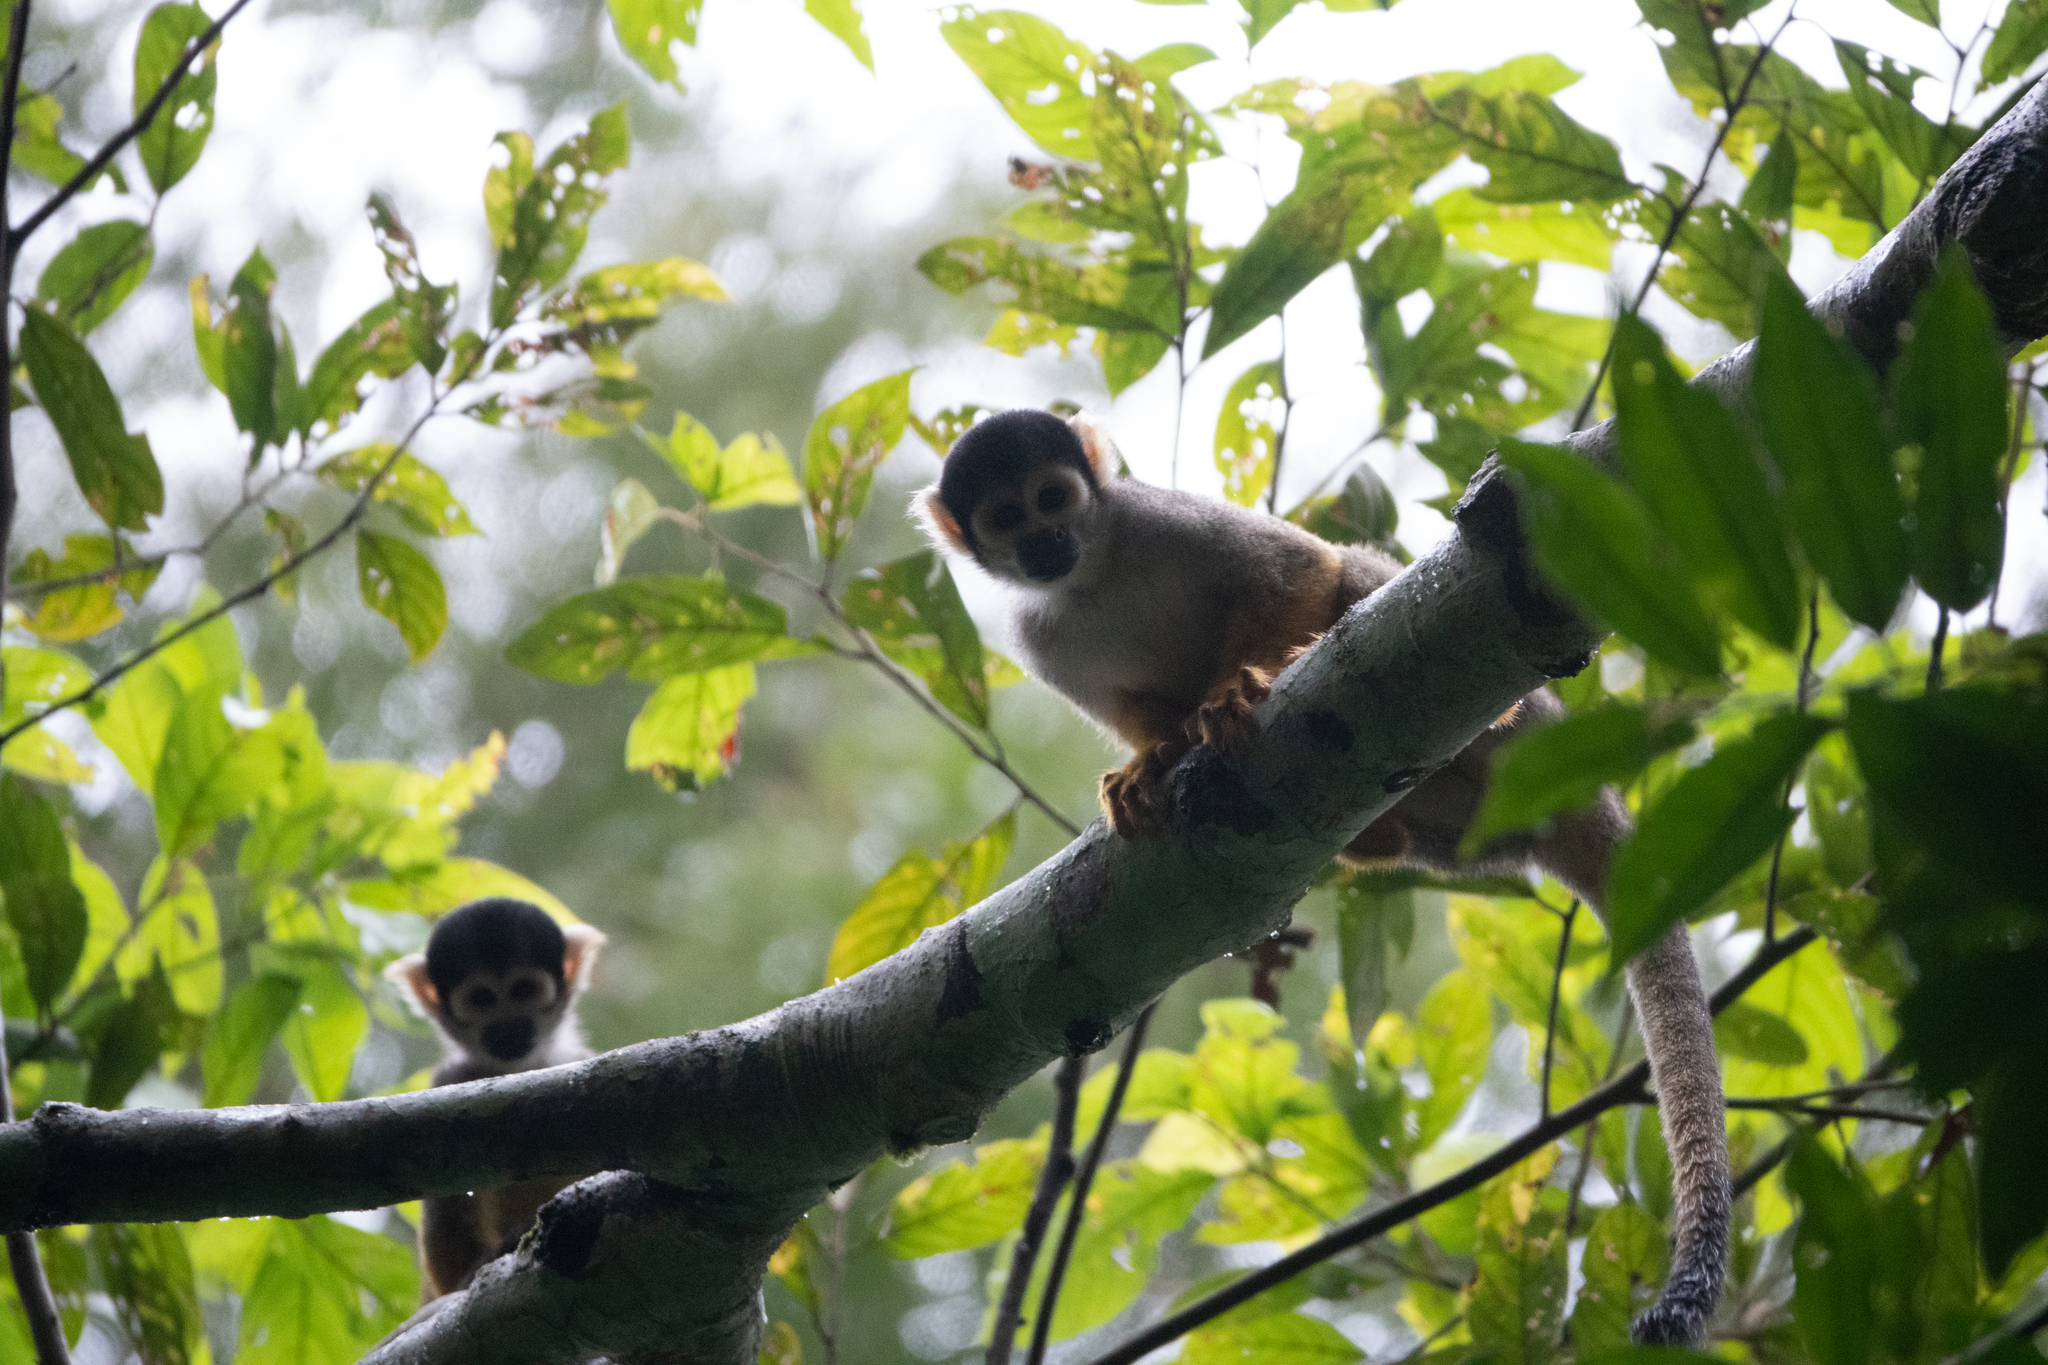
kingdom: Animalia
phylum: Chordata
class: Mammalia
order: Primates
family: Cebidae
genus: Saimiri
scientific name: Saimiri boliviensis
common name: Black-capped squirrel monkey
